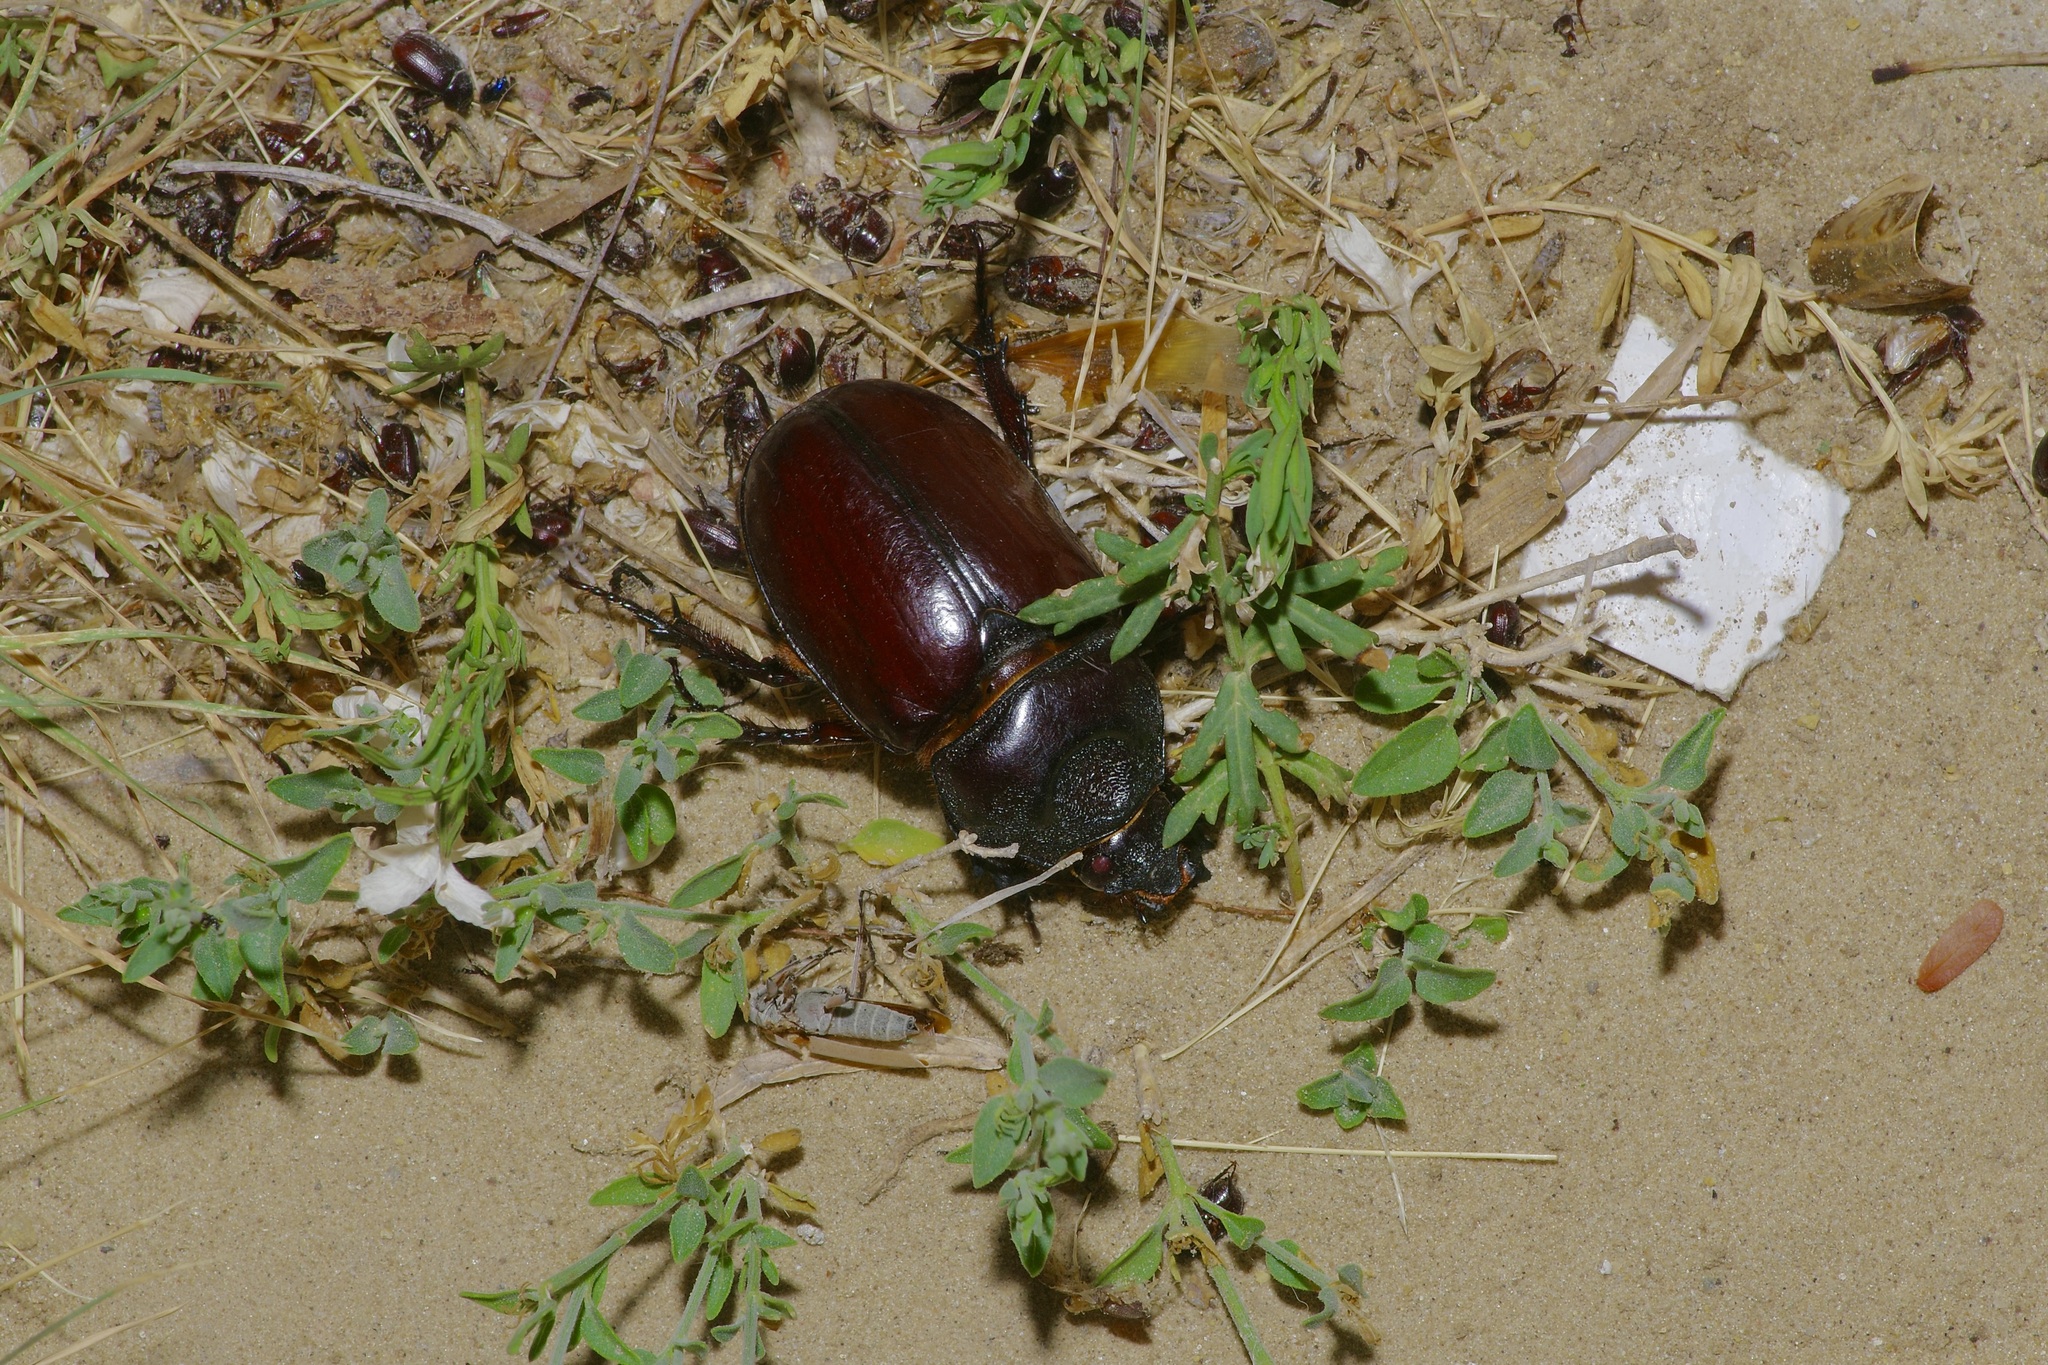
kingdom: Animalia
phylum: Arthropoda
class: Insecta
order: Coleoptera
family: Scarabaeidae
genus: Strategus
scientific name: Strategus aloeus
